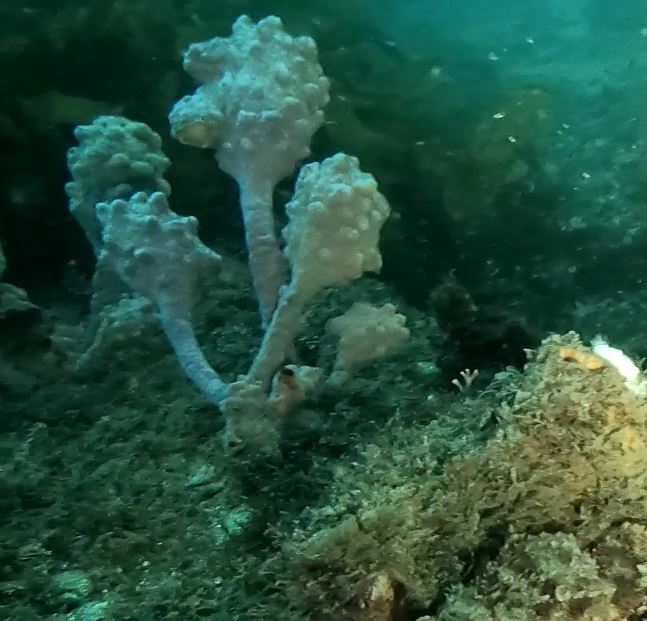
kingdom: Animalia
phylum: Chordata
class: Ascidiacea
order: Stolidobranchia
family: Pyuridae
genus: Pyura
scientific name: Pyura spinifera
